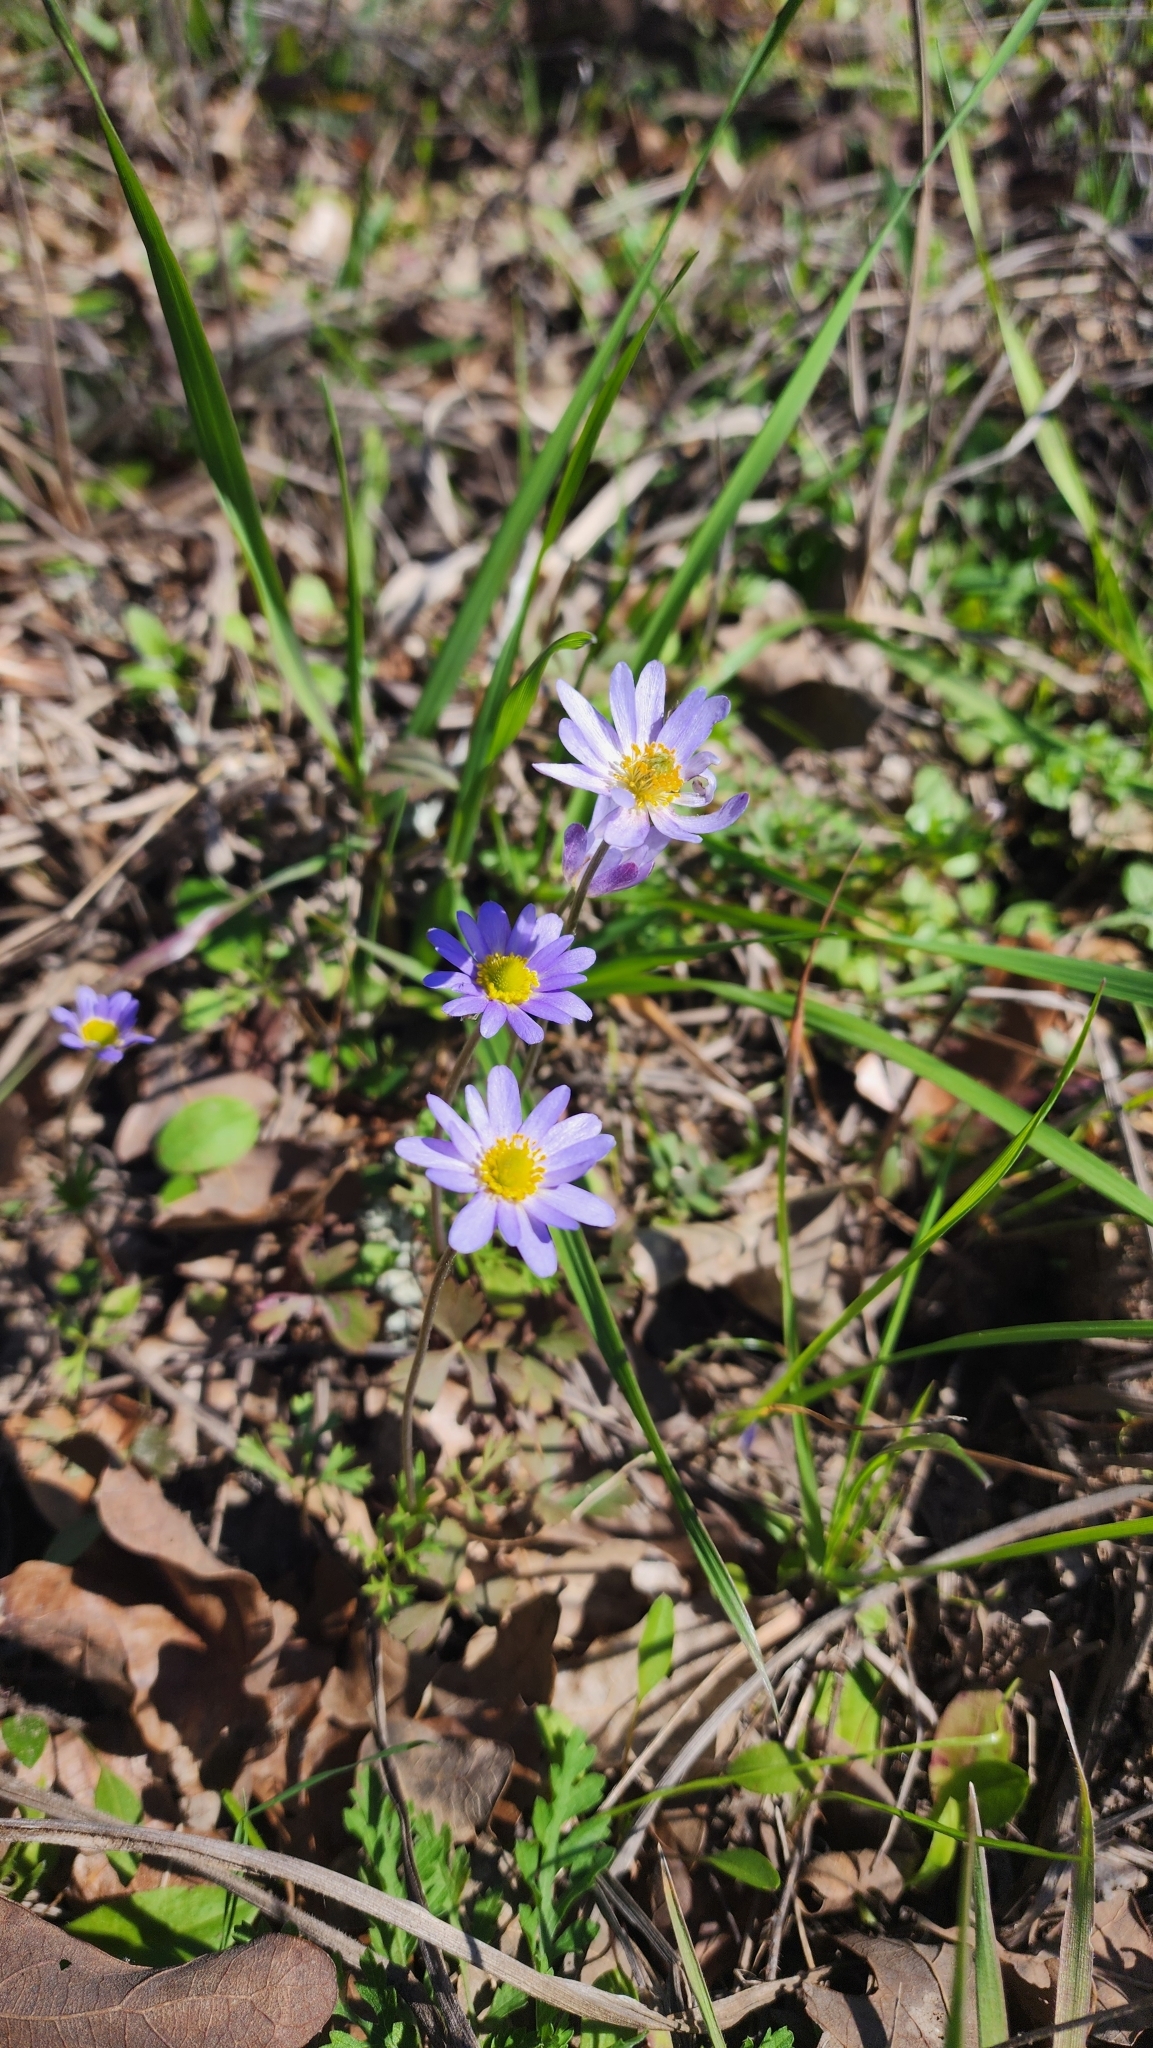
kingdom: Plantae
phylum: Tracheophyta
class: Magnoliopsida
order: Ranunculales
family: Ranunculaceae
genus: Anemone
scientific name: Anemone caroliniana
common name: Carolina anemone
